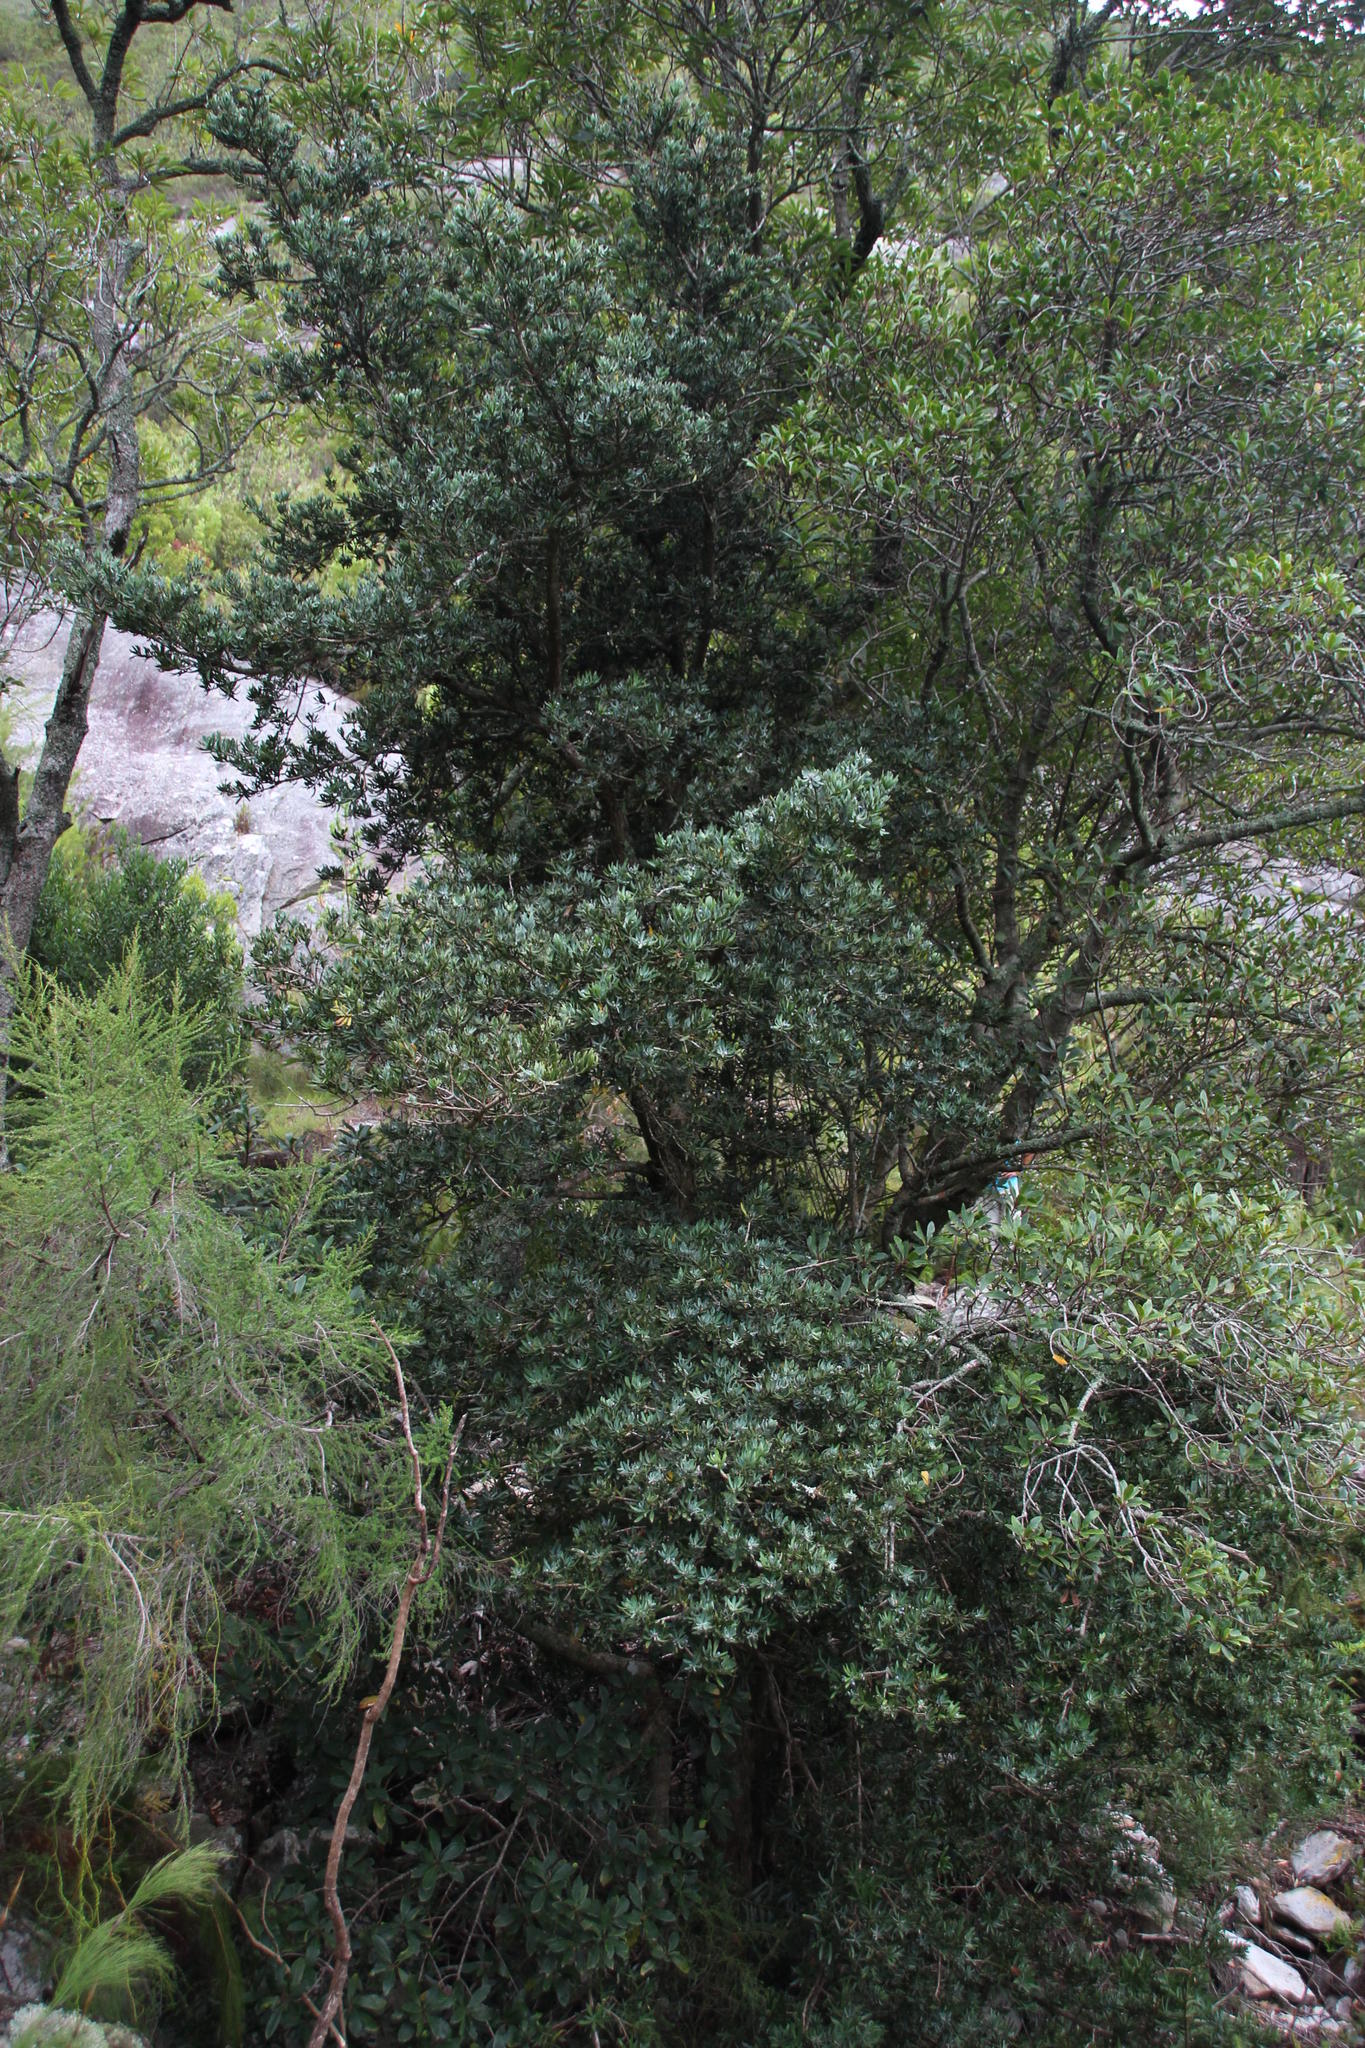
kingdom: Plantae
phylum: Tracheophyta
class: Pinopsida
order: Pinales
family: Podocarpaceae
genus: Podocarpus
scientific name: Podocarpus latifolius
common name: True yellowwood
